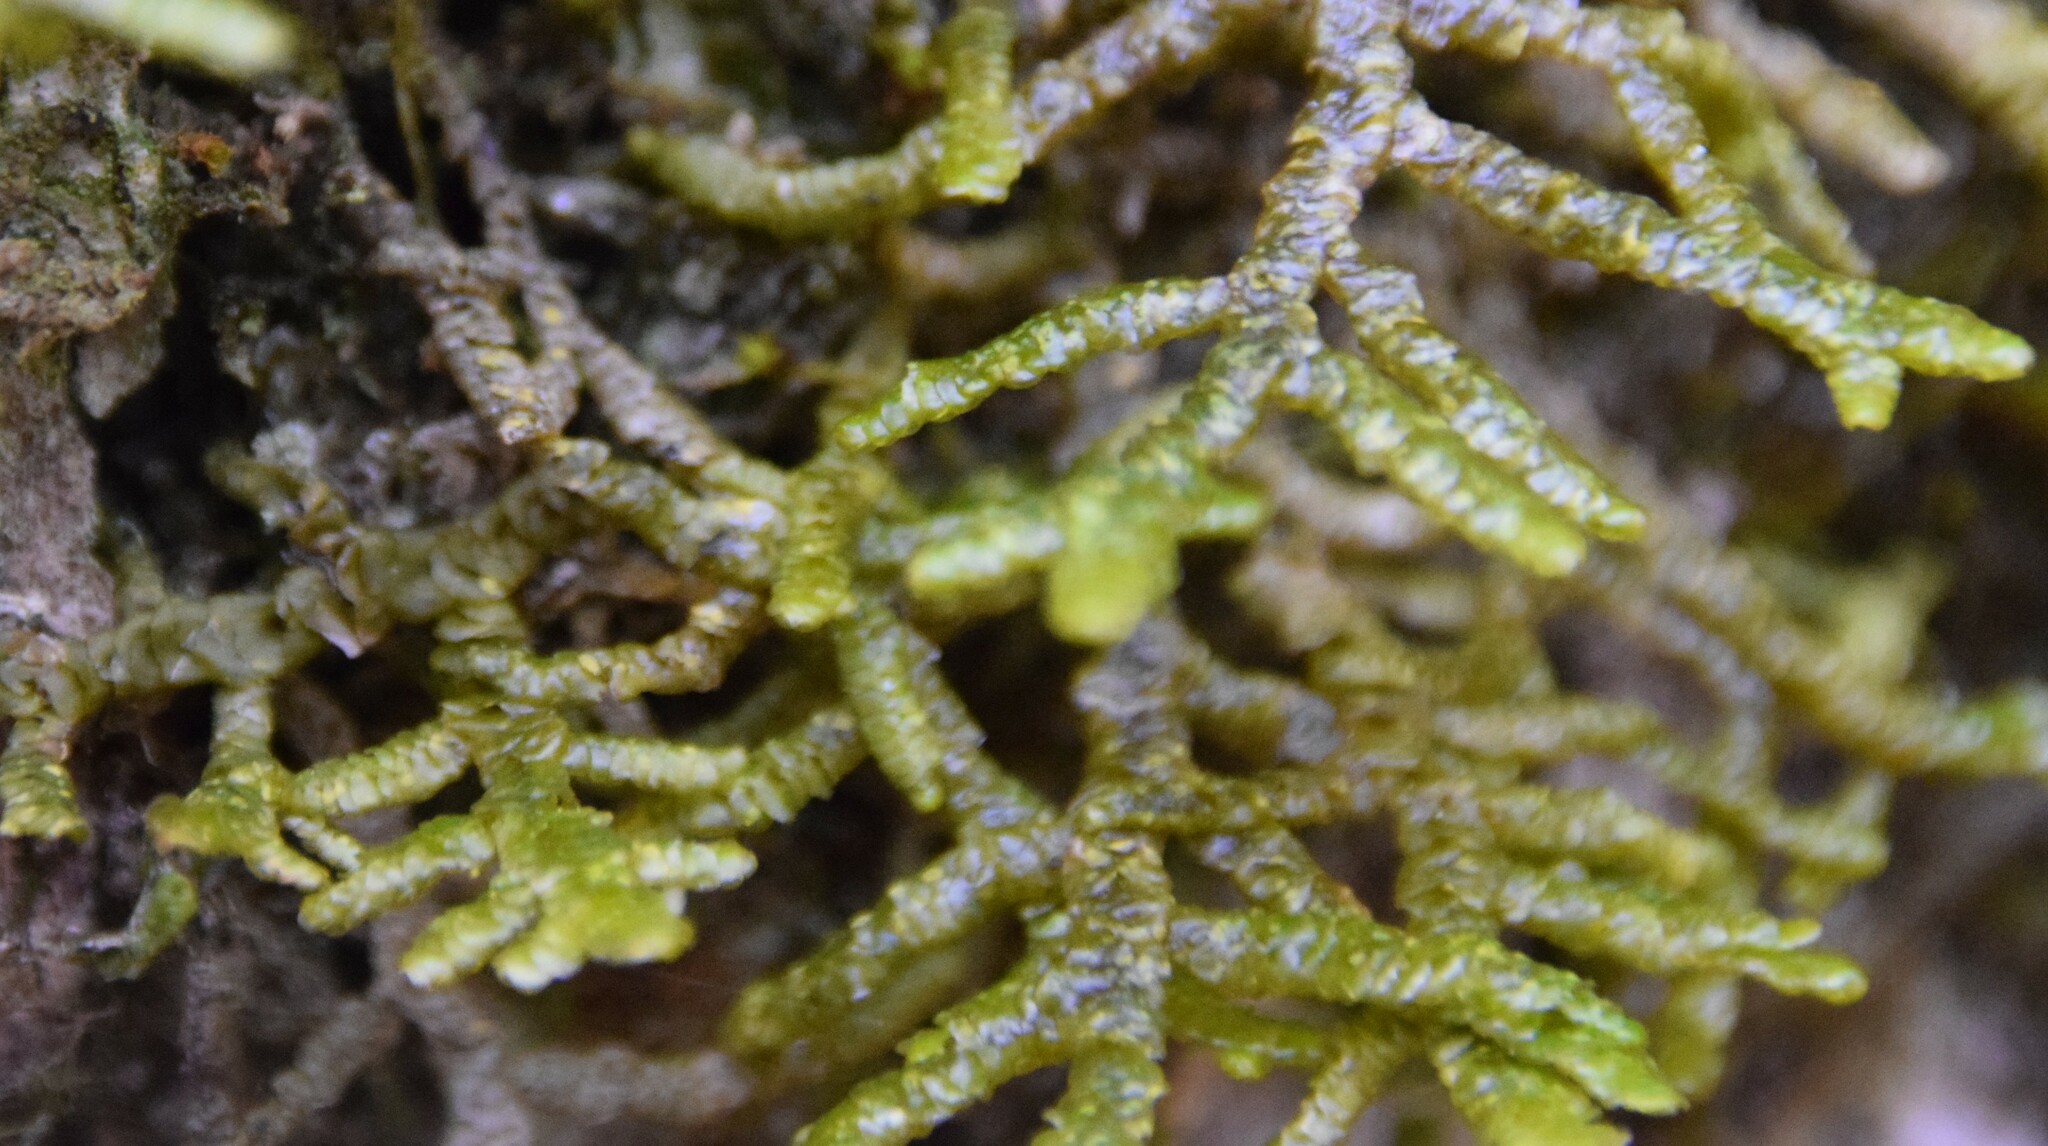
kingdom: Plantae
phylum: Marchantiophyta
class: Jungermanniopsida
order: Porellales
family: Porellaceae
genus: Porella
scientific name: Porella platyphylla
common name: Wall scalewort
